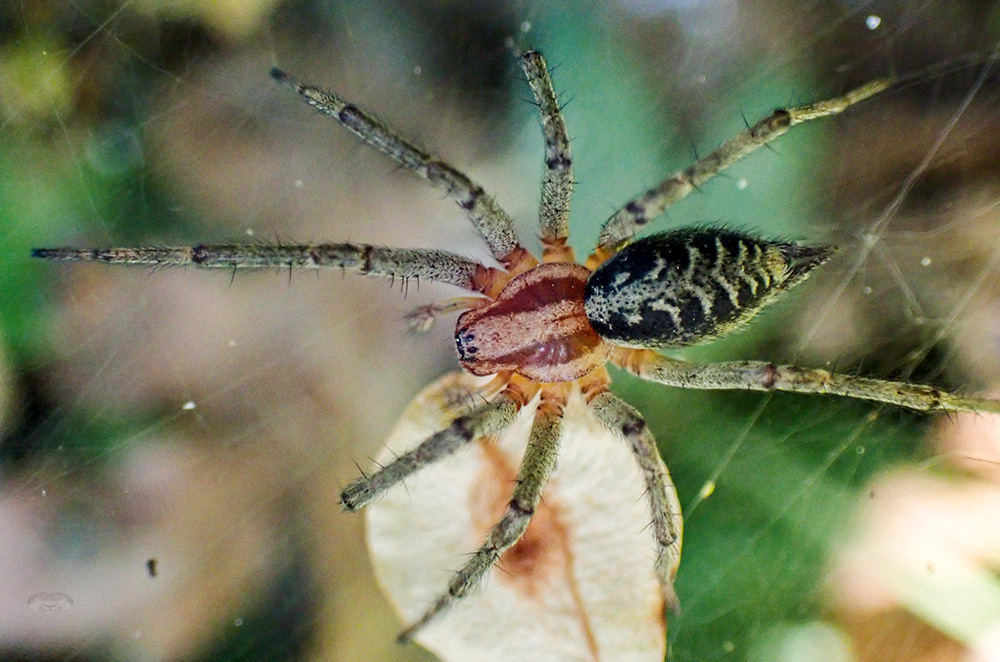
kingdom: Animalia
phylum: Arthropoda
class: Arachnida
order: Araneae
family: Agelenidae
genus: Agelena
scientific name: Agelena labyrinthica
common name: Labyrinth spider
